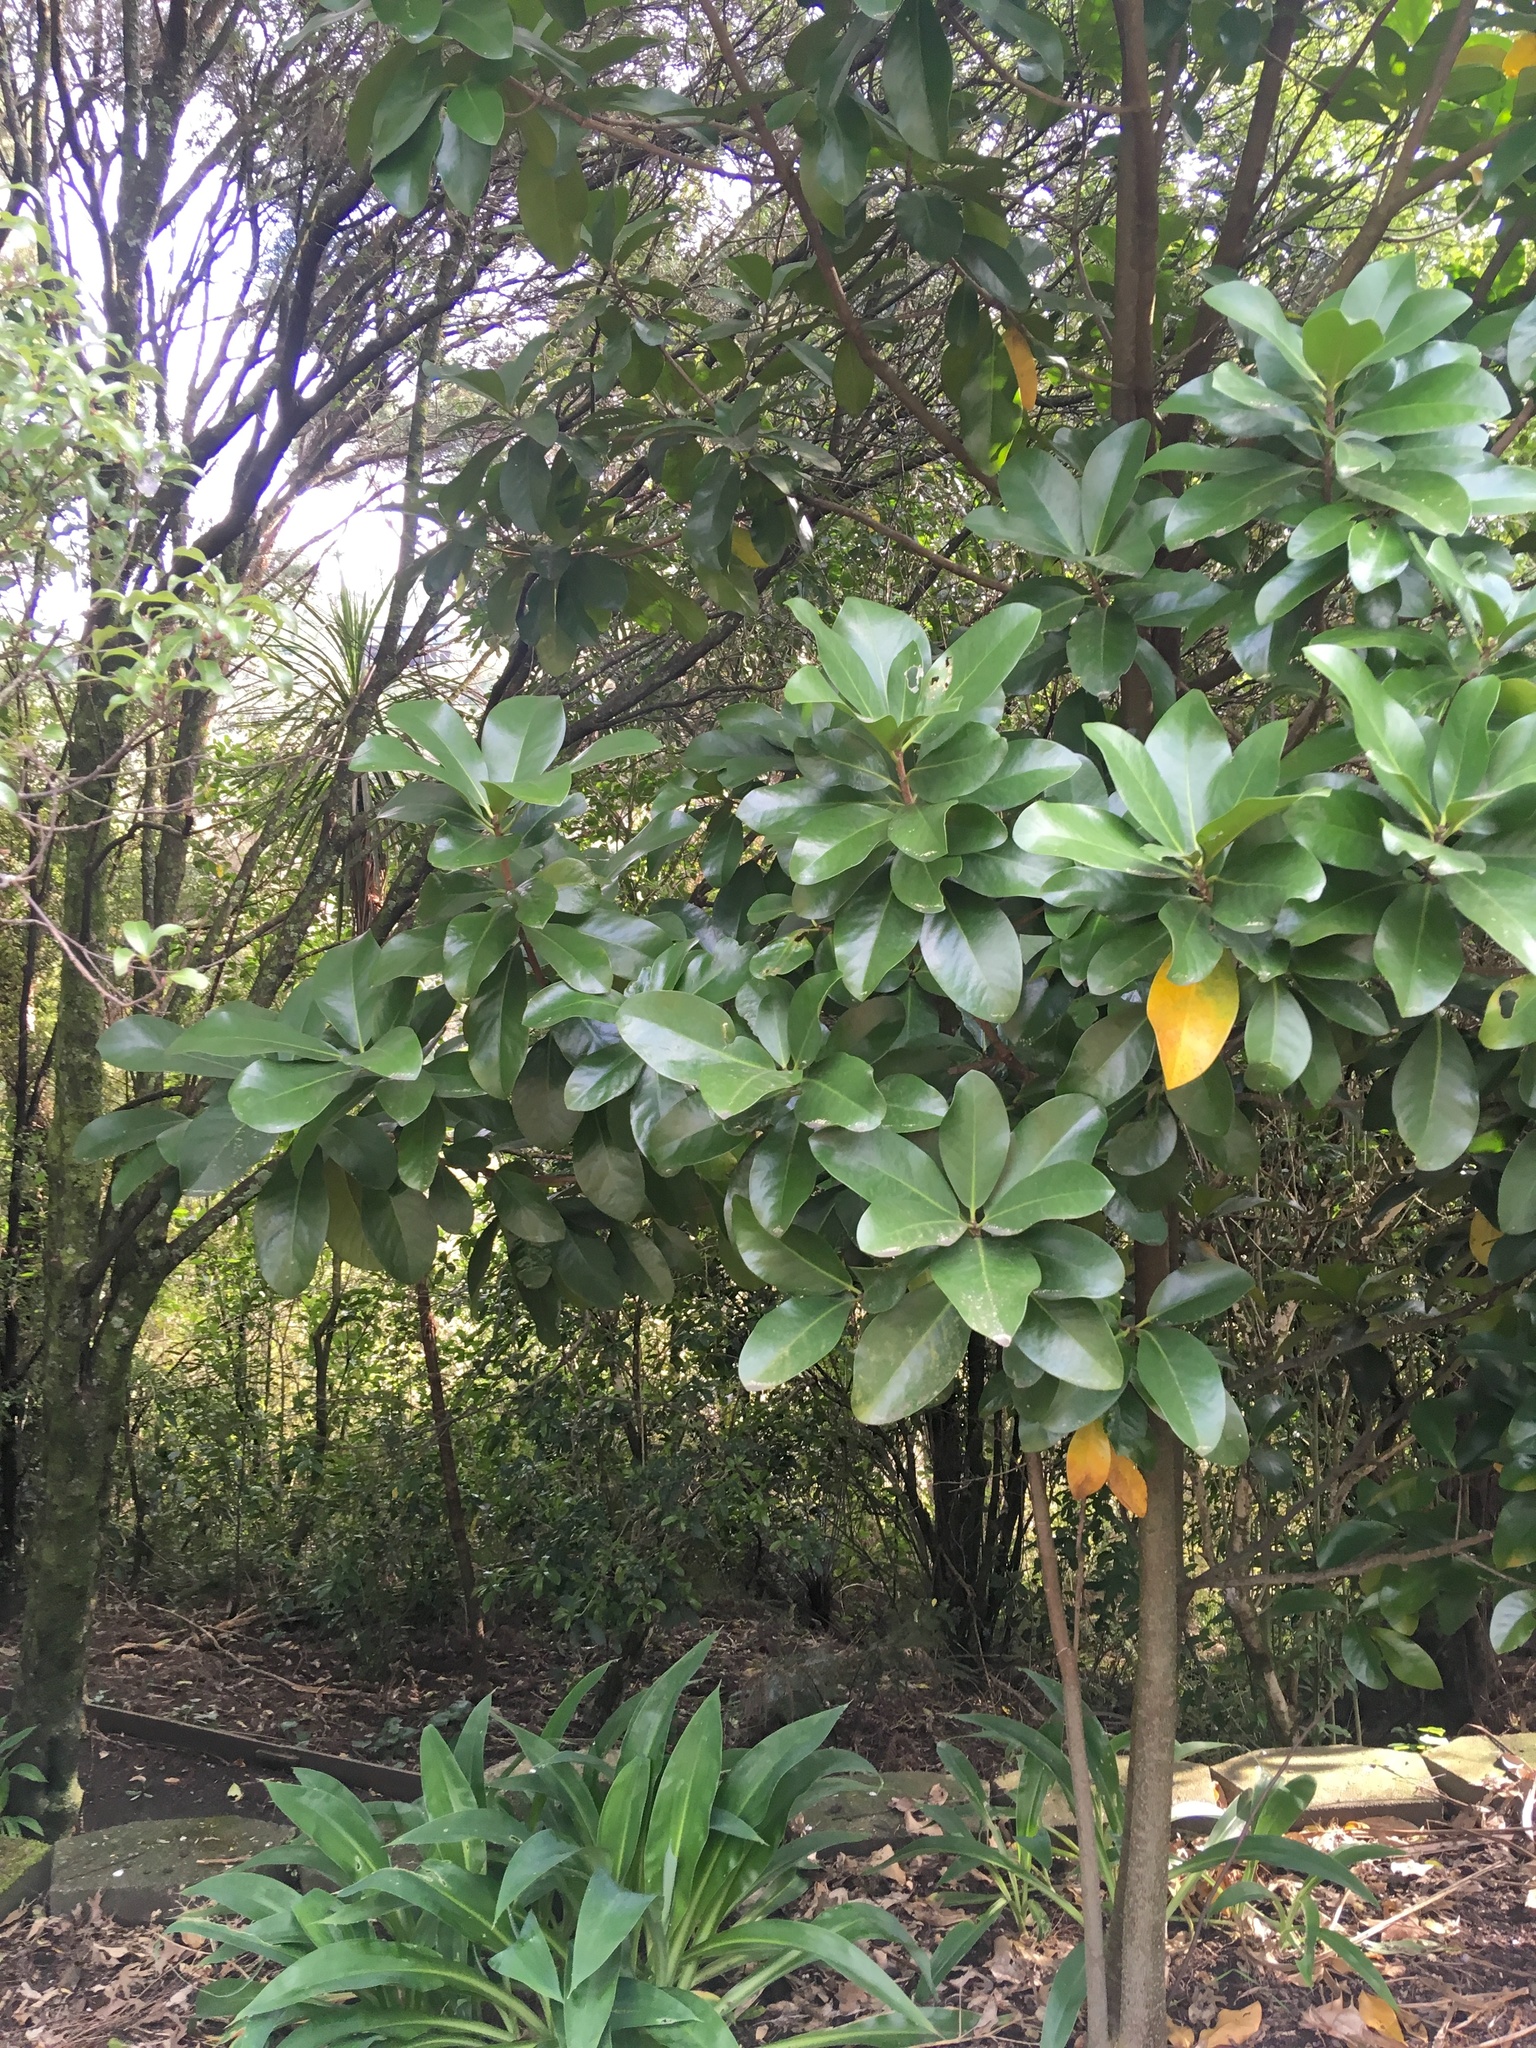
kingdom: Plantae
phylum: Tracheophyta
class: Magnoliopsida
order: Cucurbitales
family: Corynocarpaceae
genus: Corynocarpus
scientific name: Corynocarpus laevigatus
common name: New zealand laurel
